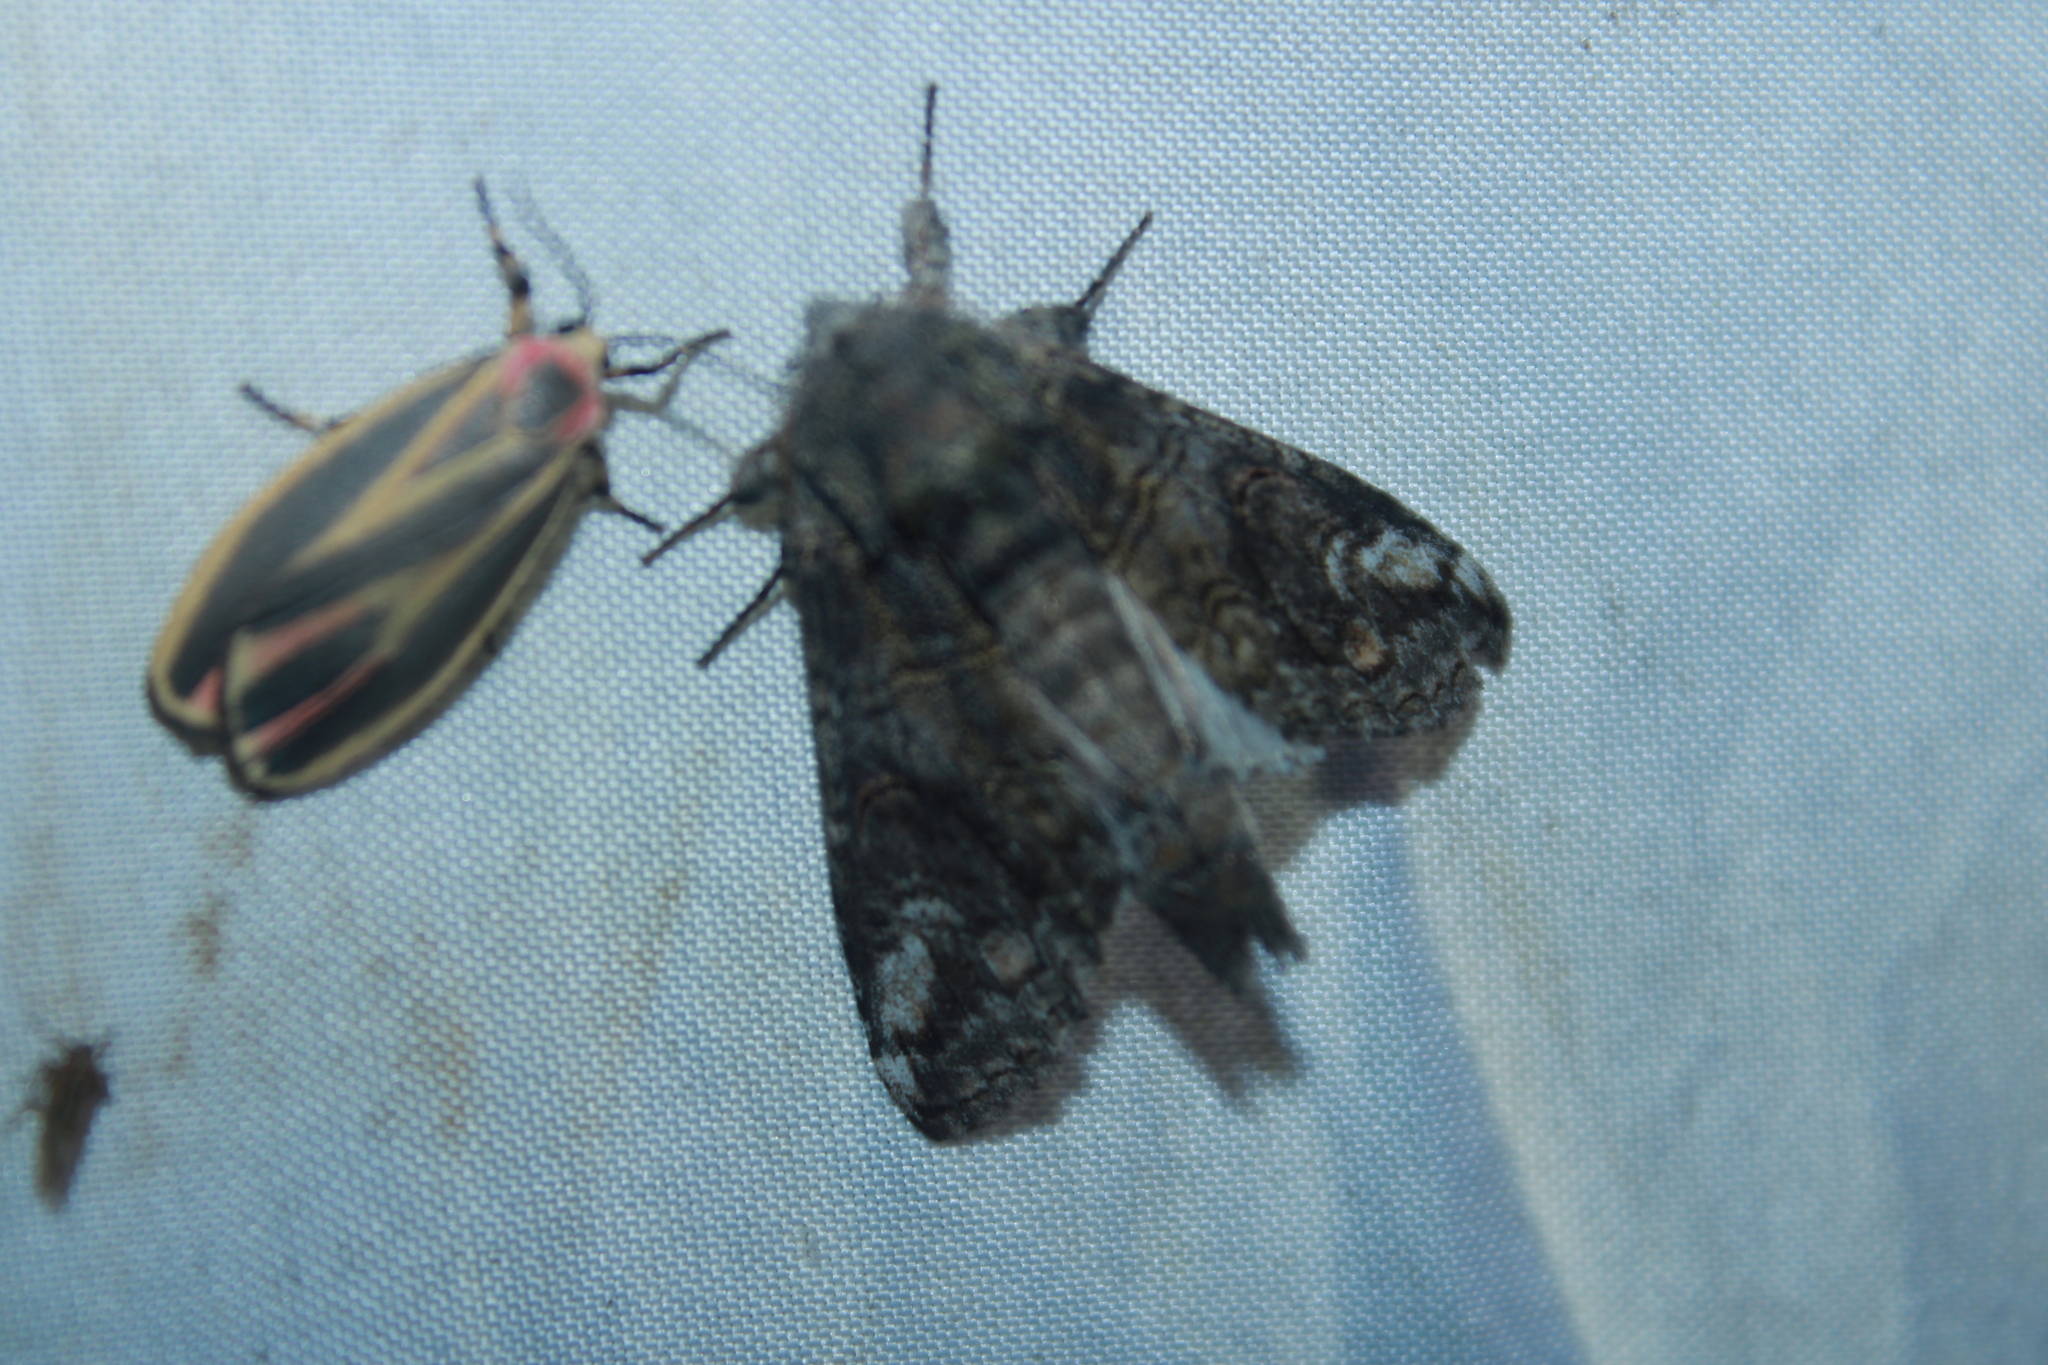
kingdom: Animalia
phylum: Arthropoda
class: Insecta
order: Lepidoptera
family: Notodontidae
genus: Heterocampa
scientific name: Heterocampa obliqua
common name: Oblique heterocampa
